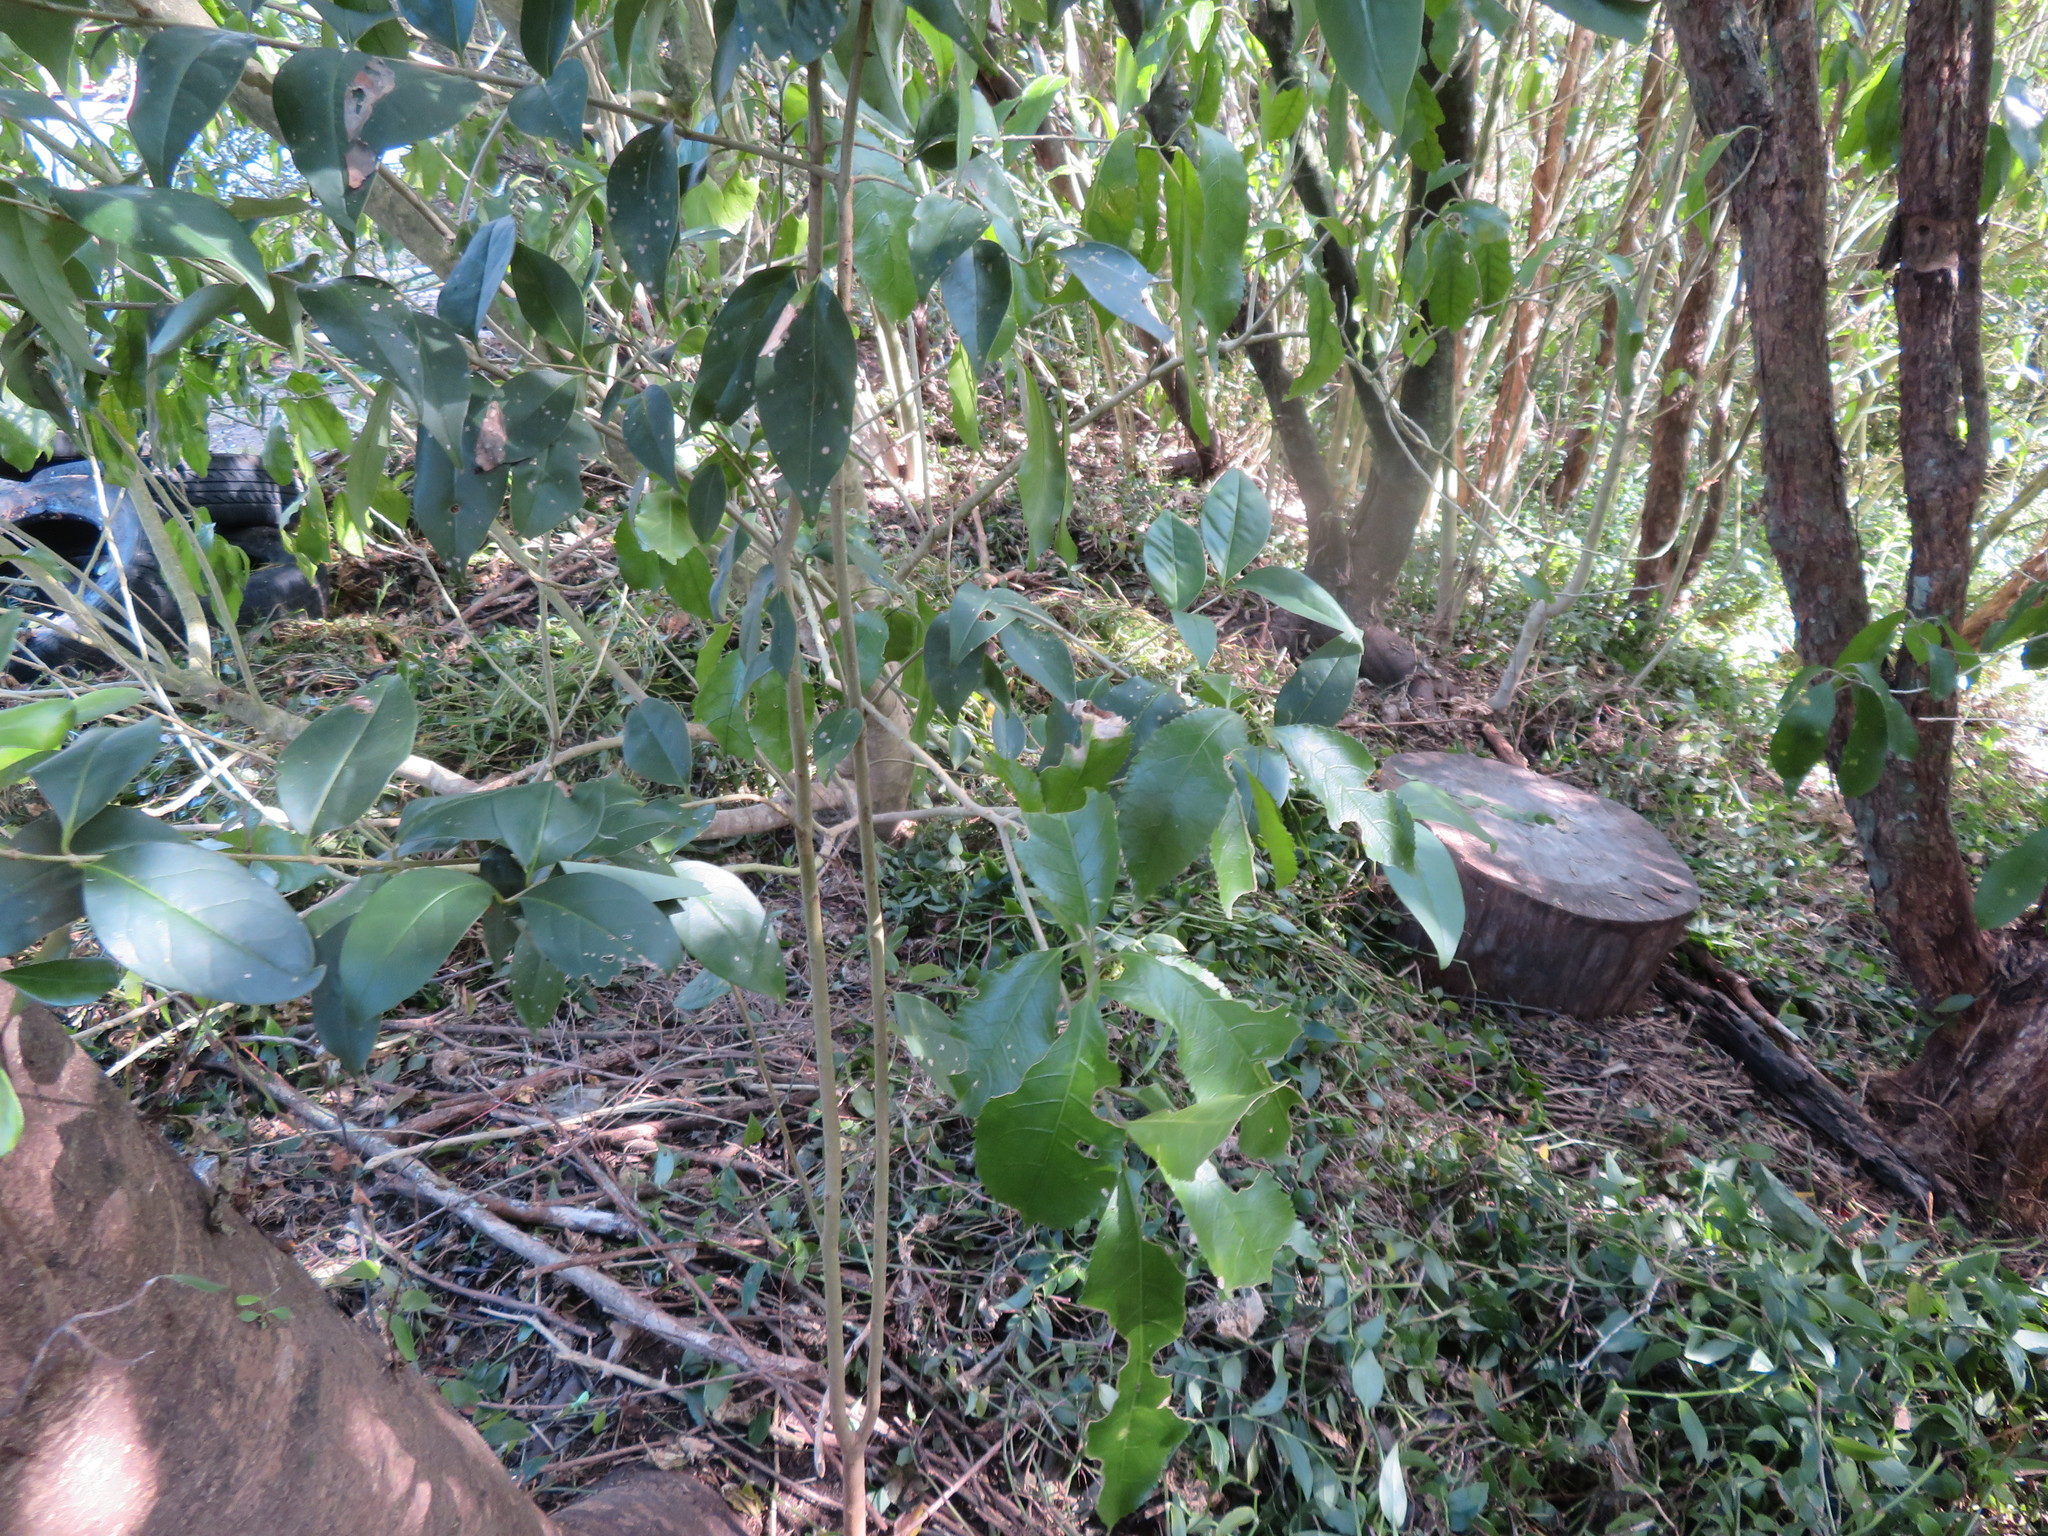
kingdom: Plantae
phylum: Tracheophyta
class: Magnoliopsida
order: Lamiales
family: Oleaceae
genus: Ligustrum
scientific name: Ligustrum lucidum
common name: Glossy privet
